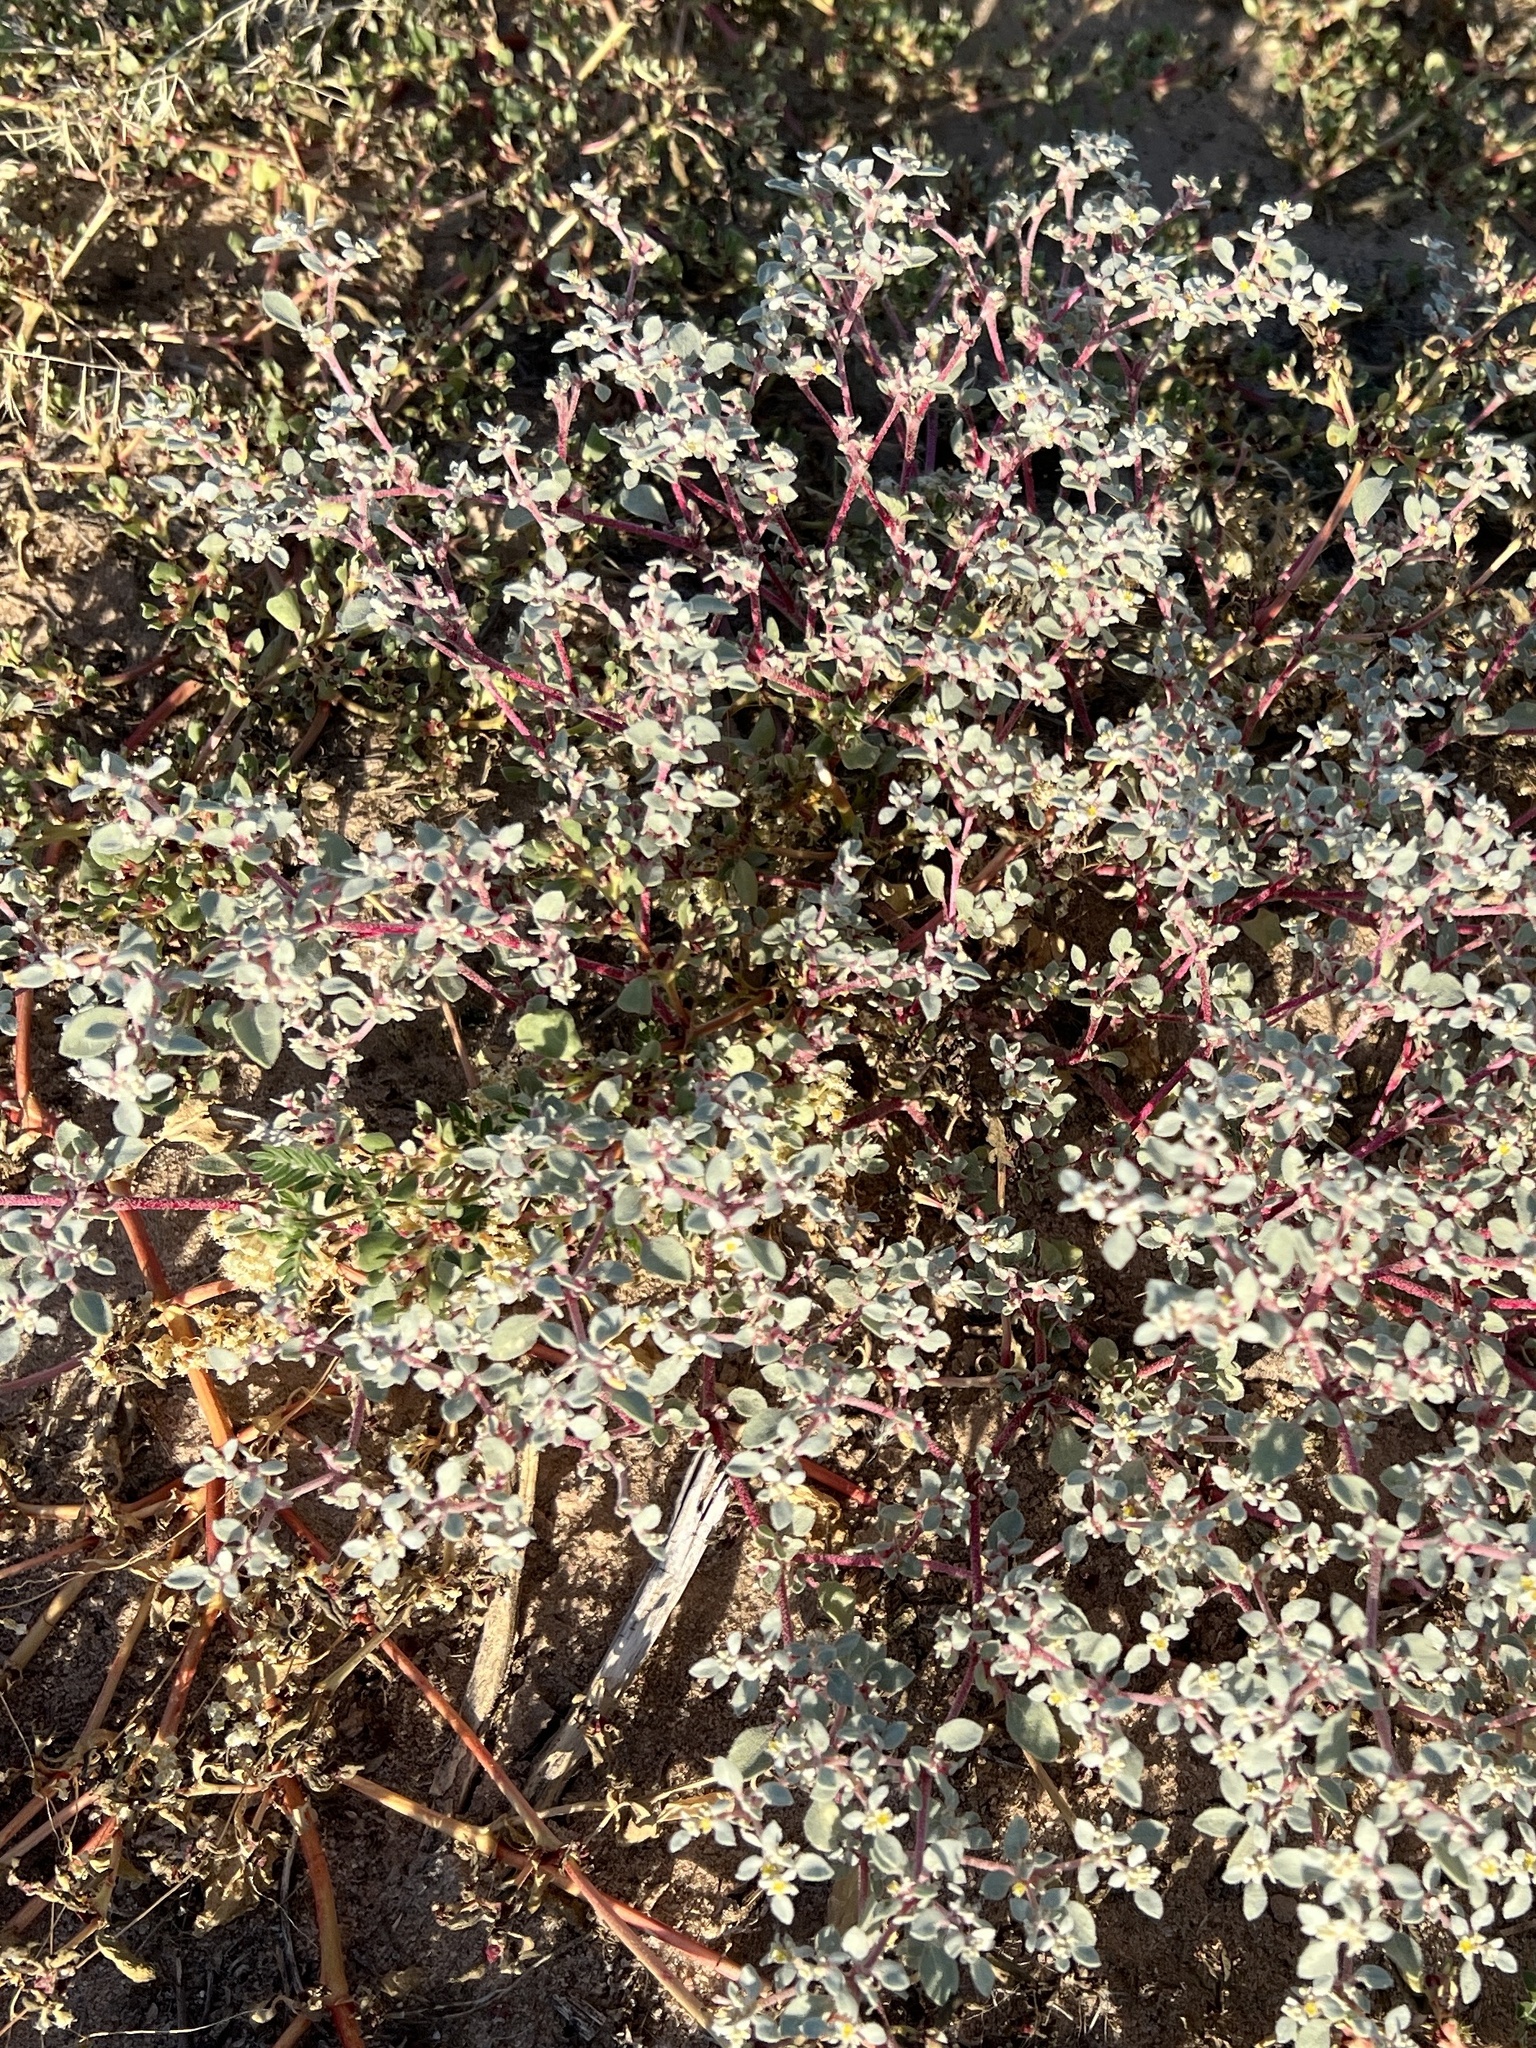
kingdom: Plantae
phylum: Tracheophyta
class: Magnoliopsida
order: Caryophyllales
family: Amaranthaceae
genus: Tidestromia
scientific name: Tidestromia lanuginosa
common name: Woolly tidestromia
